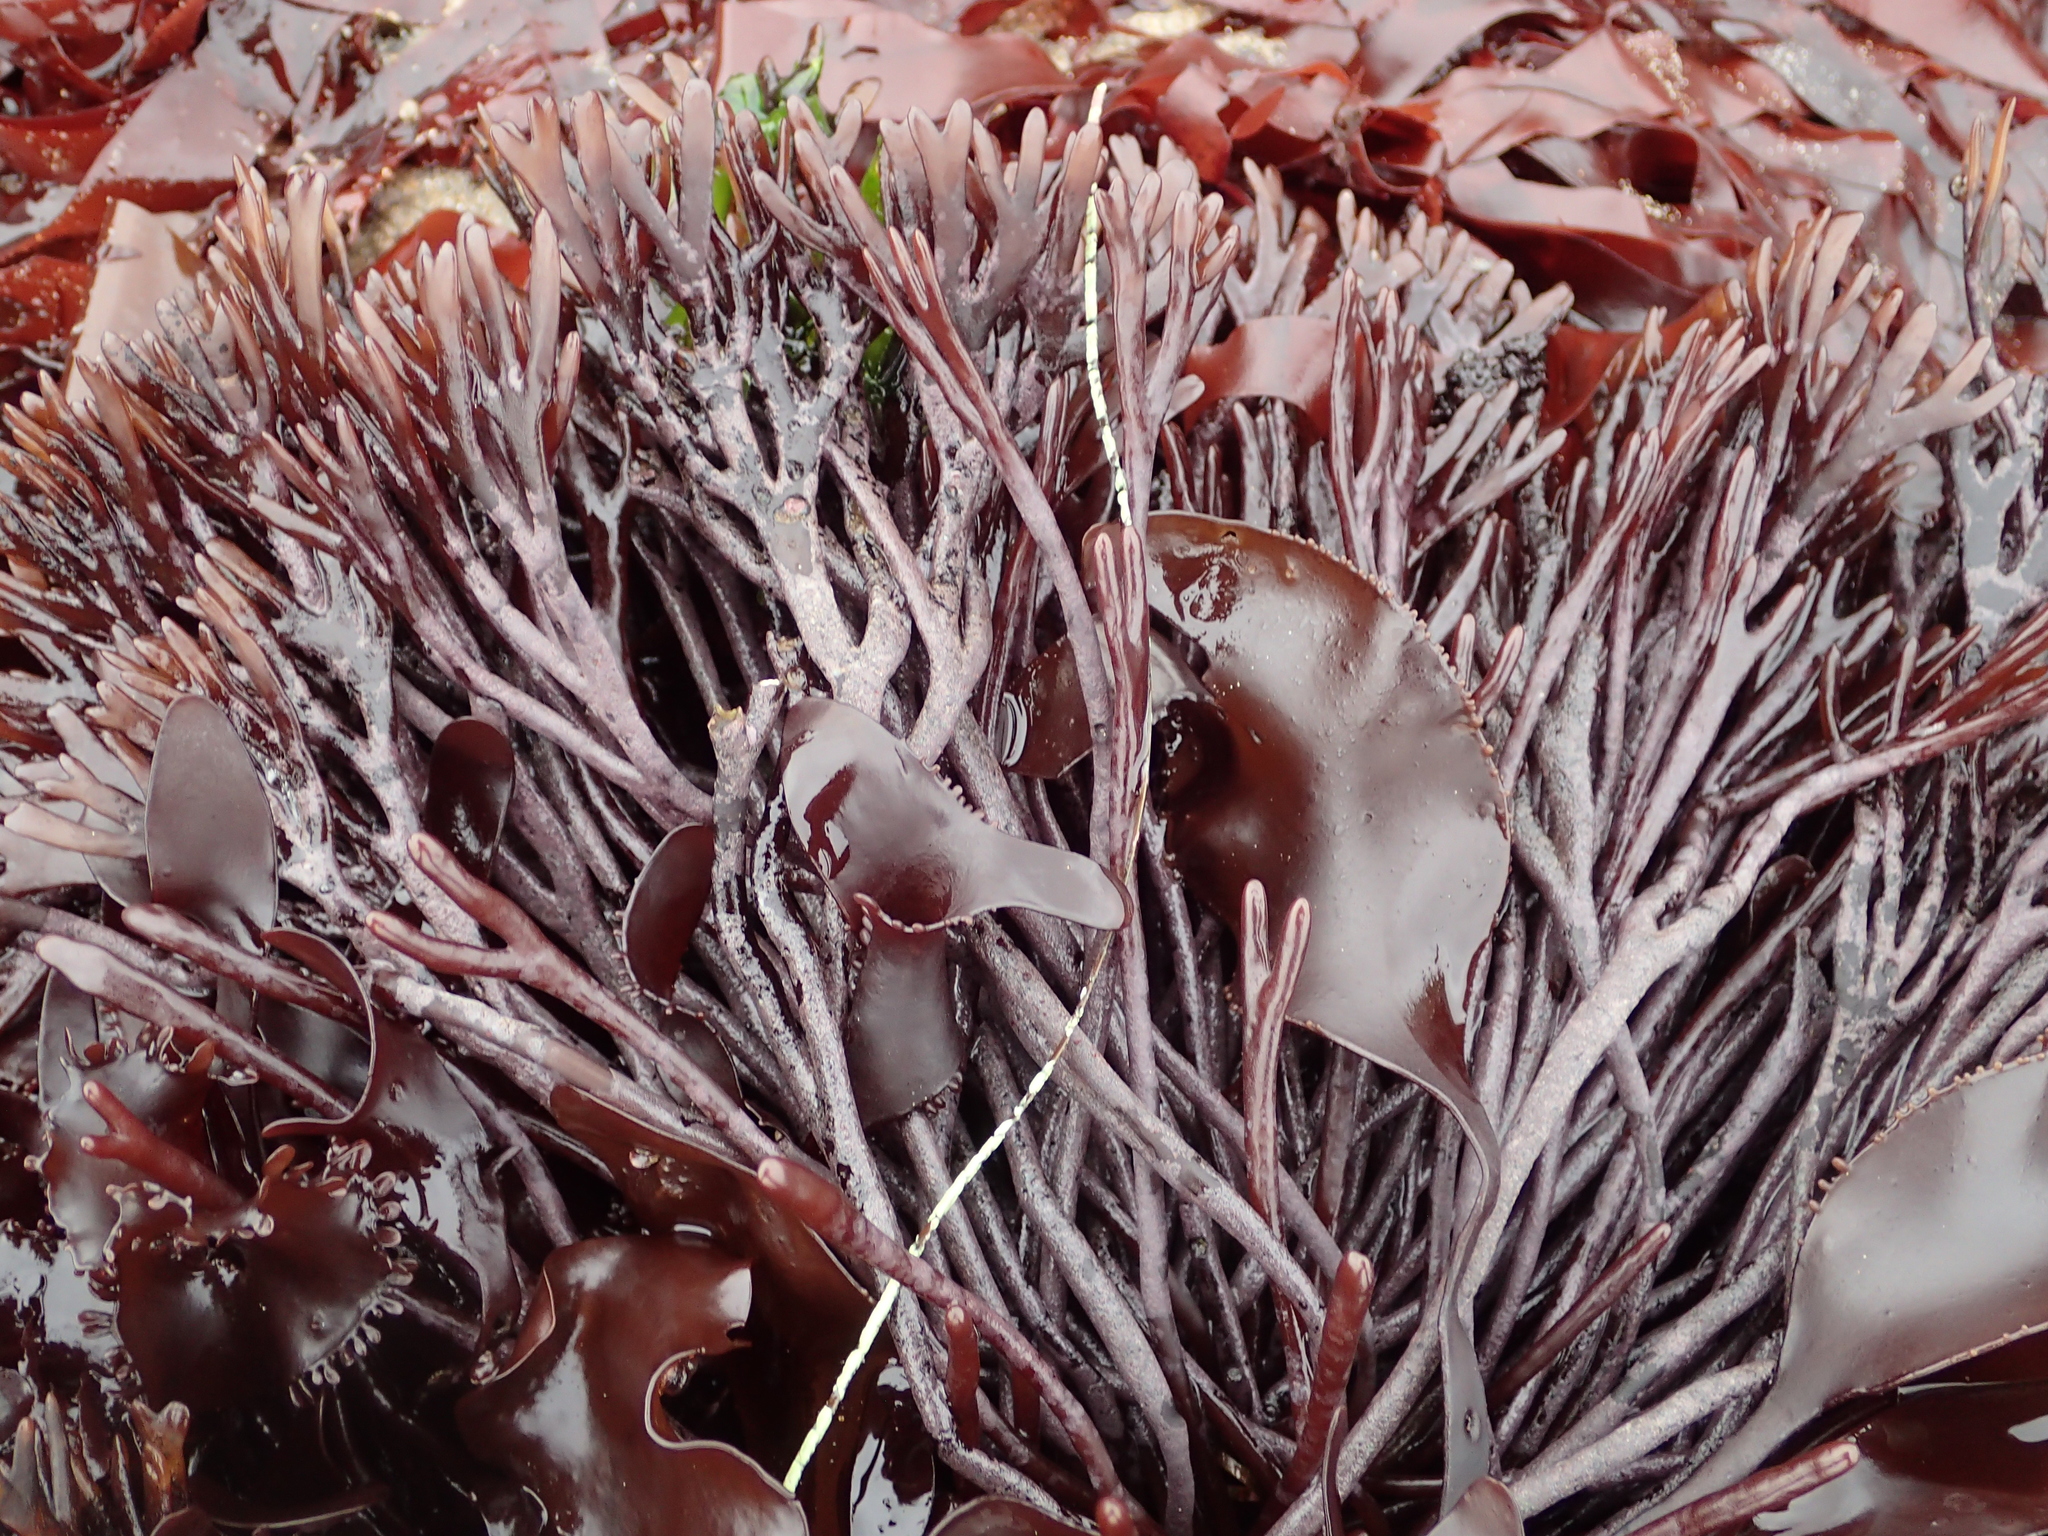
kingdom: Plantae
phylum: Rhodophyta
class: Florideophyceae
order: Gigartinales
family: Phyllophoraceae
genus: Ahnfeltiopsis
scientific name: Ahnfeltiopsis linearis
